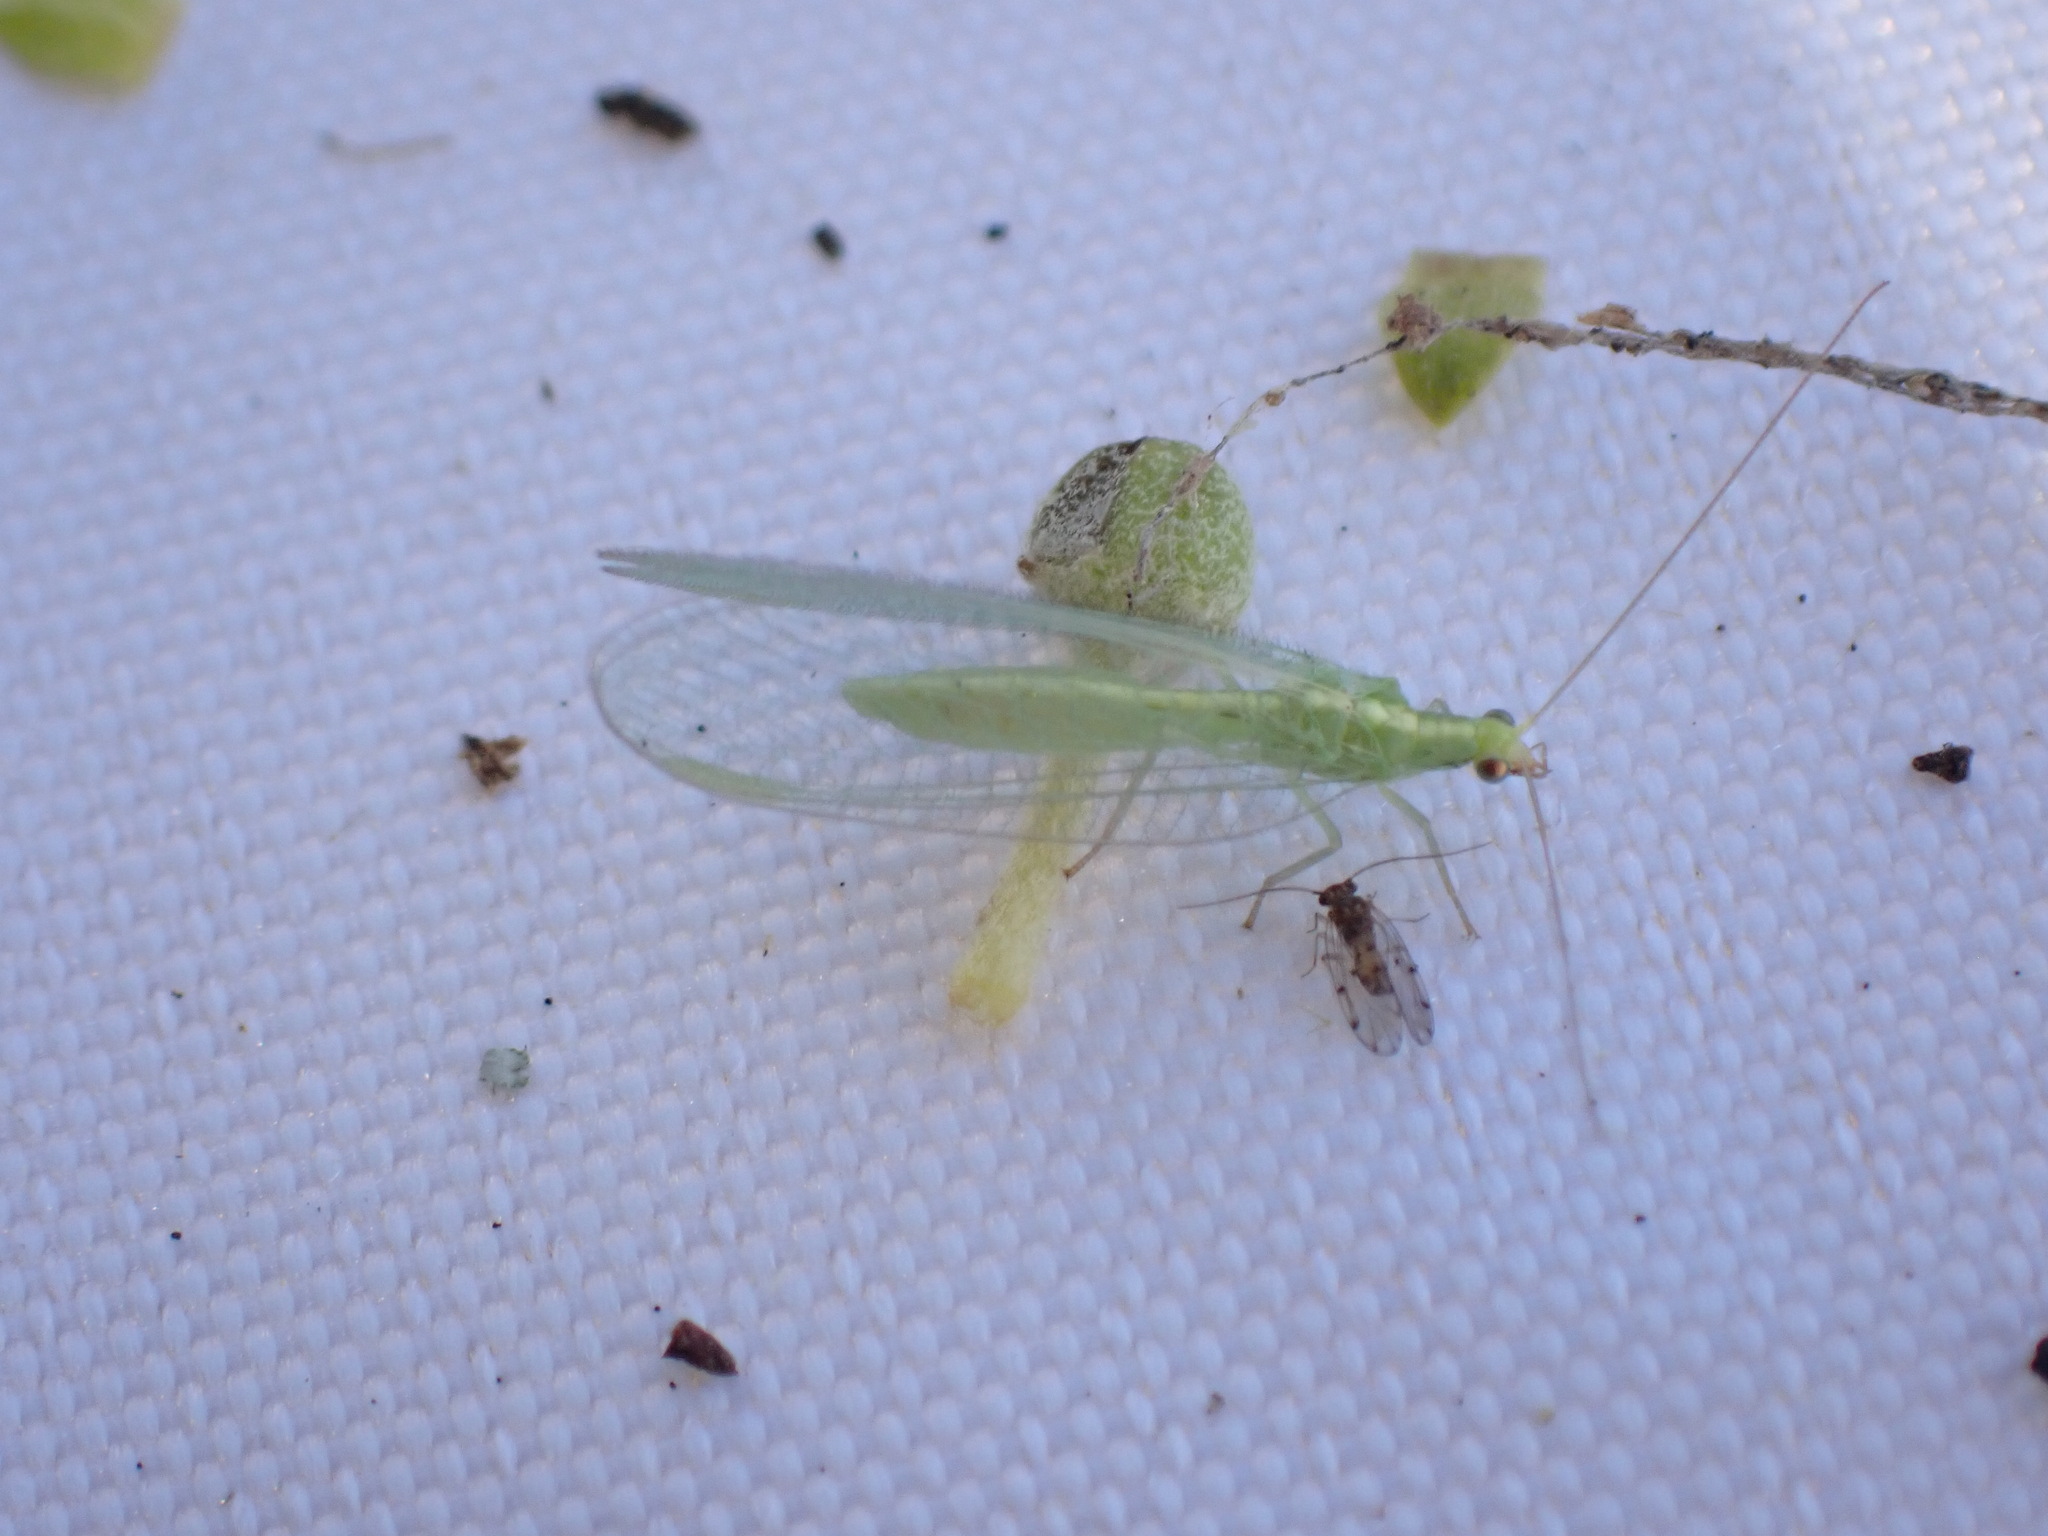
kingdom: Animalia
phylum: Arthropoda
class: Insecta
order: Neuroptera
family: Chrysopidae
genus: Chrysoperla
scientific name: Chrysoperla
